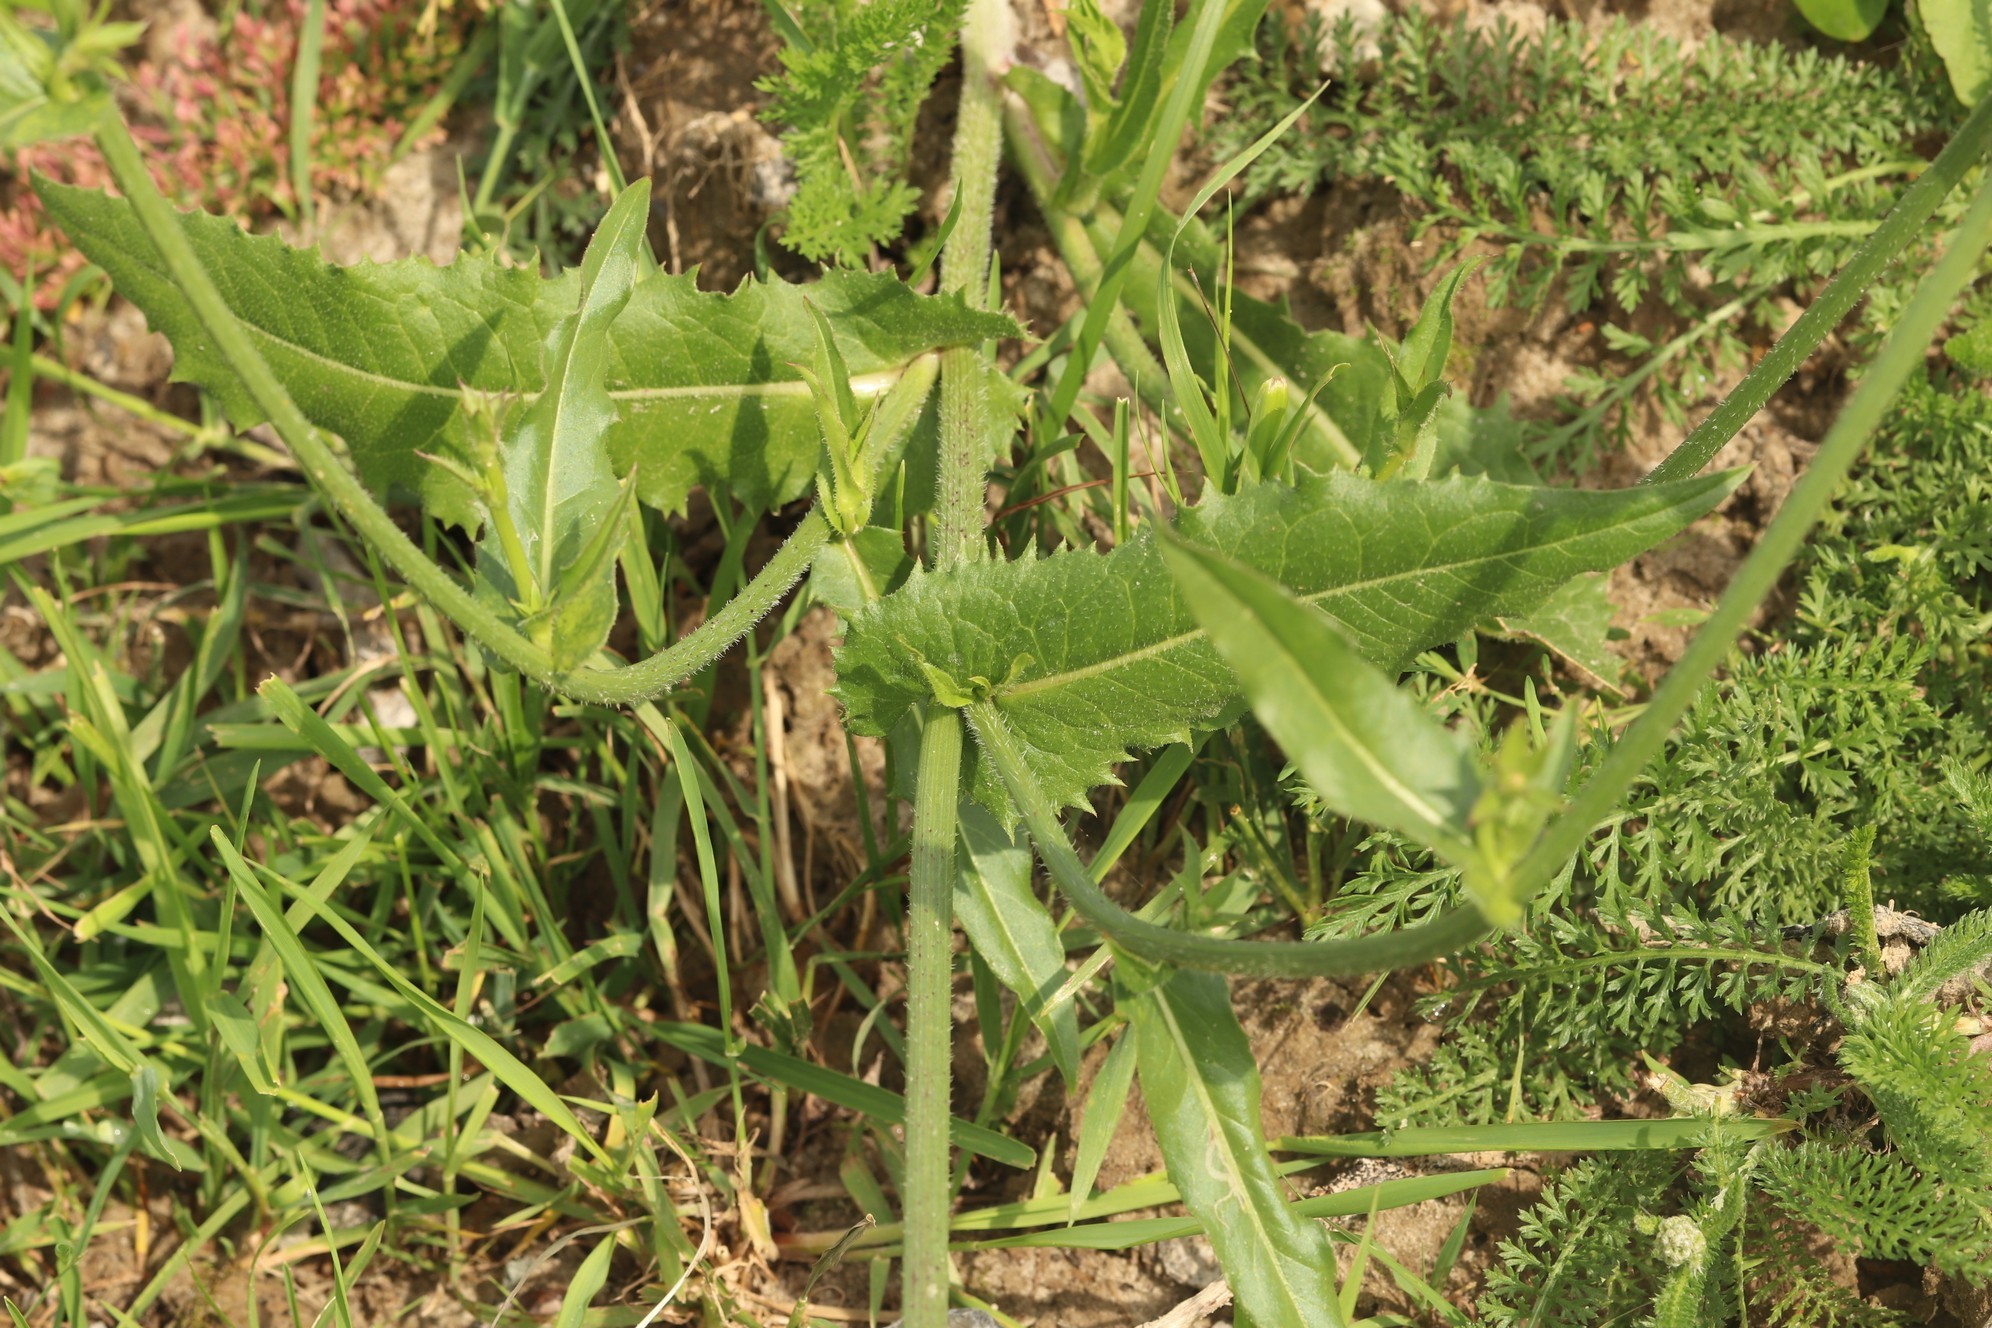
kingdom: Plantae
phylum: Tracheophyta
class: Magnoliopsida
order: Asterales
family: Asteraceae
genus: Cichorium
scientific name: Cichorium intybus
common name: Chicory
